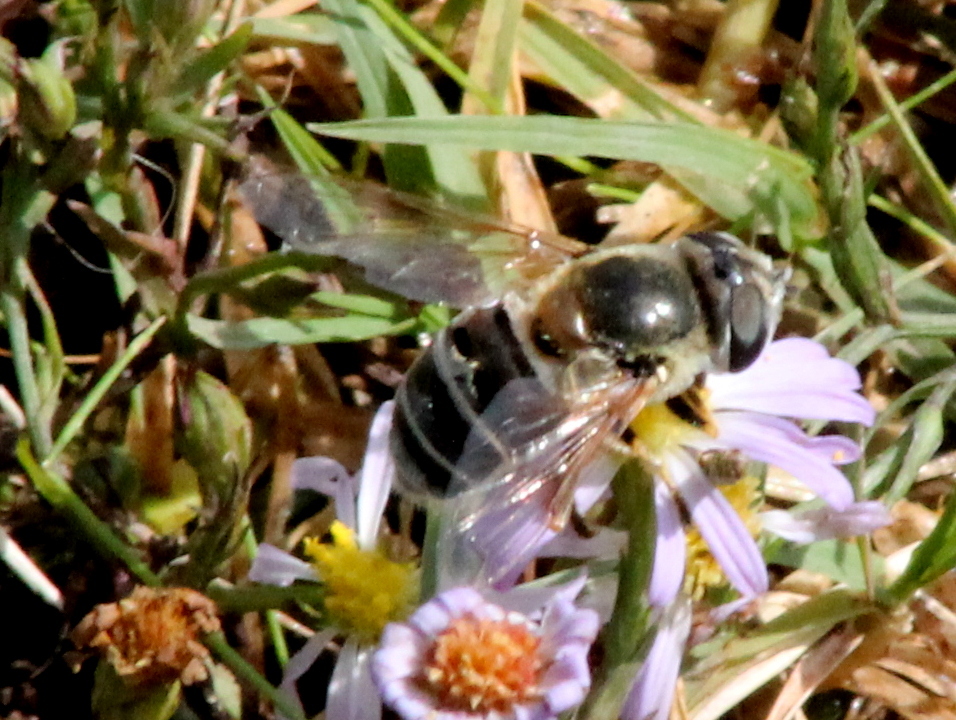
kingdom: Animalia
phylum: Arthropoda
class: Insecta
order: Diptera
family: Syrphidae
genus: Eristalis
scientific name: Eristalis stipator
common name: Yellow-shouldered drone fly
